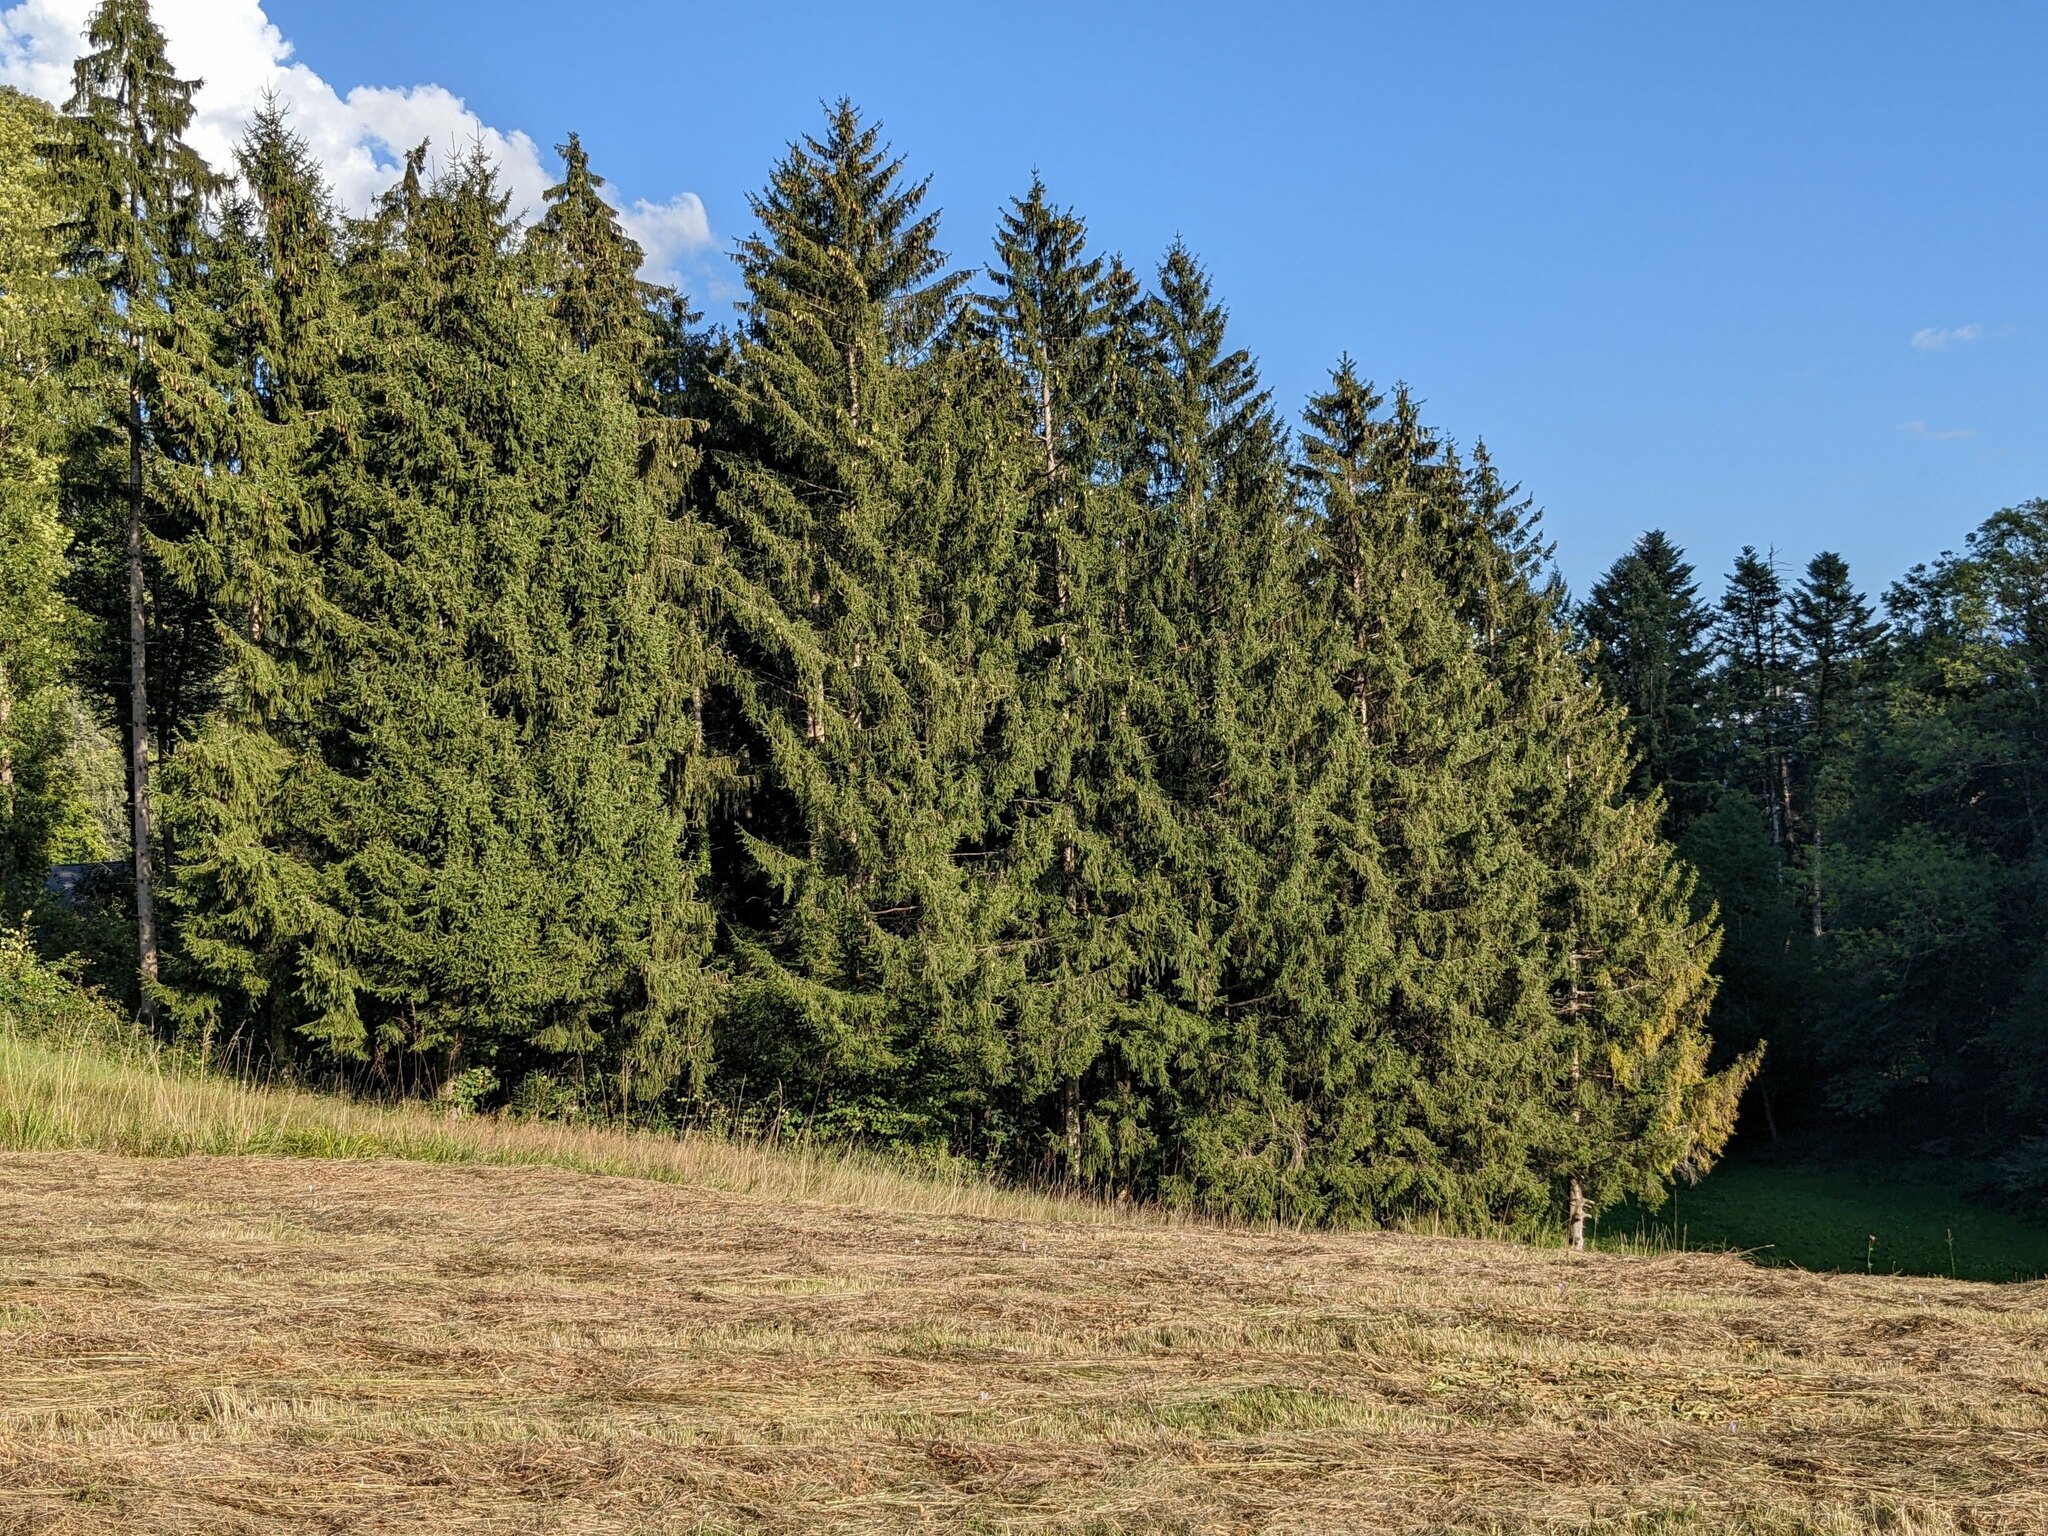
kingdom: Plantae
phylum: Tracheophyta
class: Pinopsida
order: Pinales
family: Pinaceae
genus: Picea
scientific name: Picea abies
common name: Norway spruce
